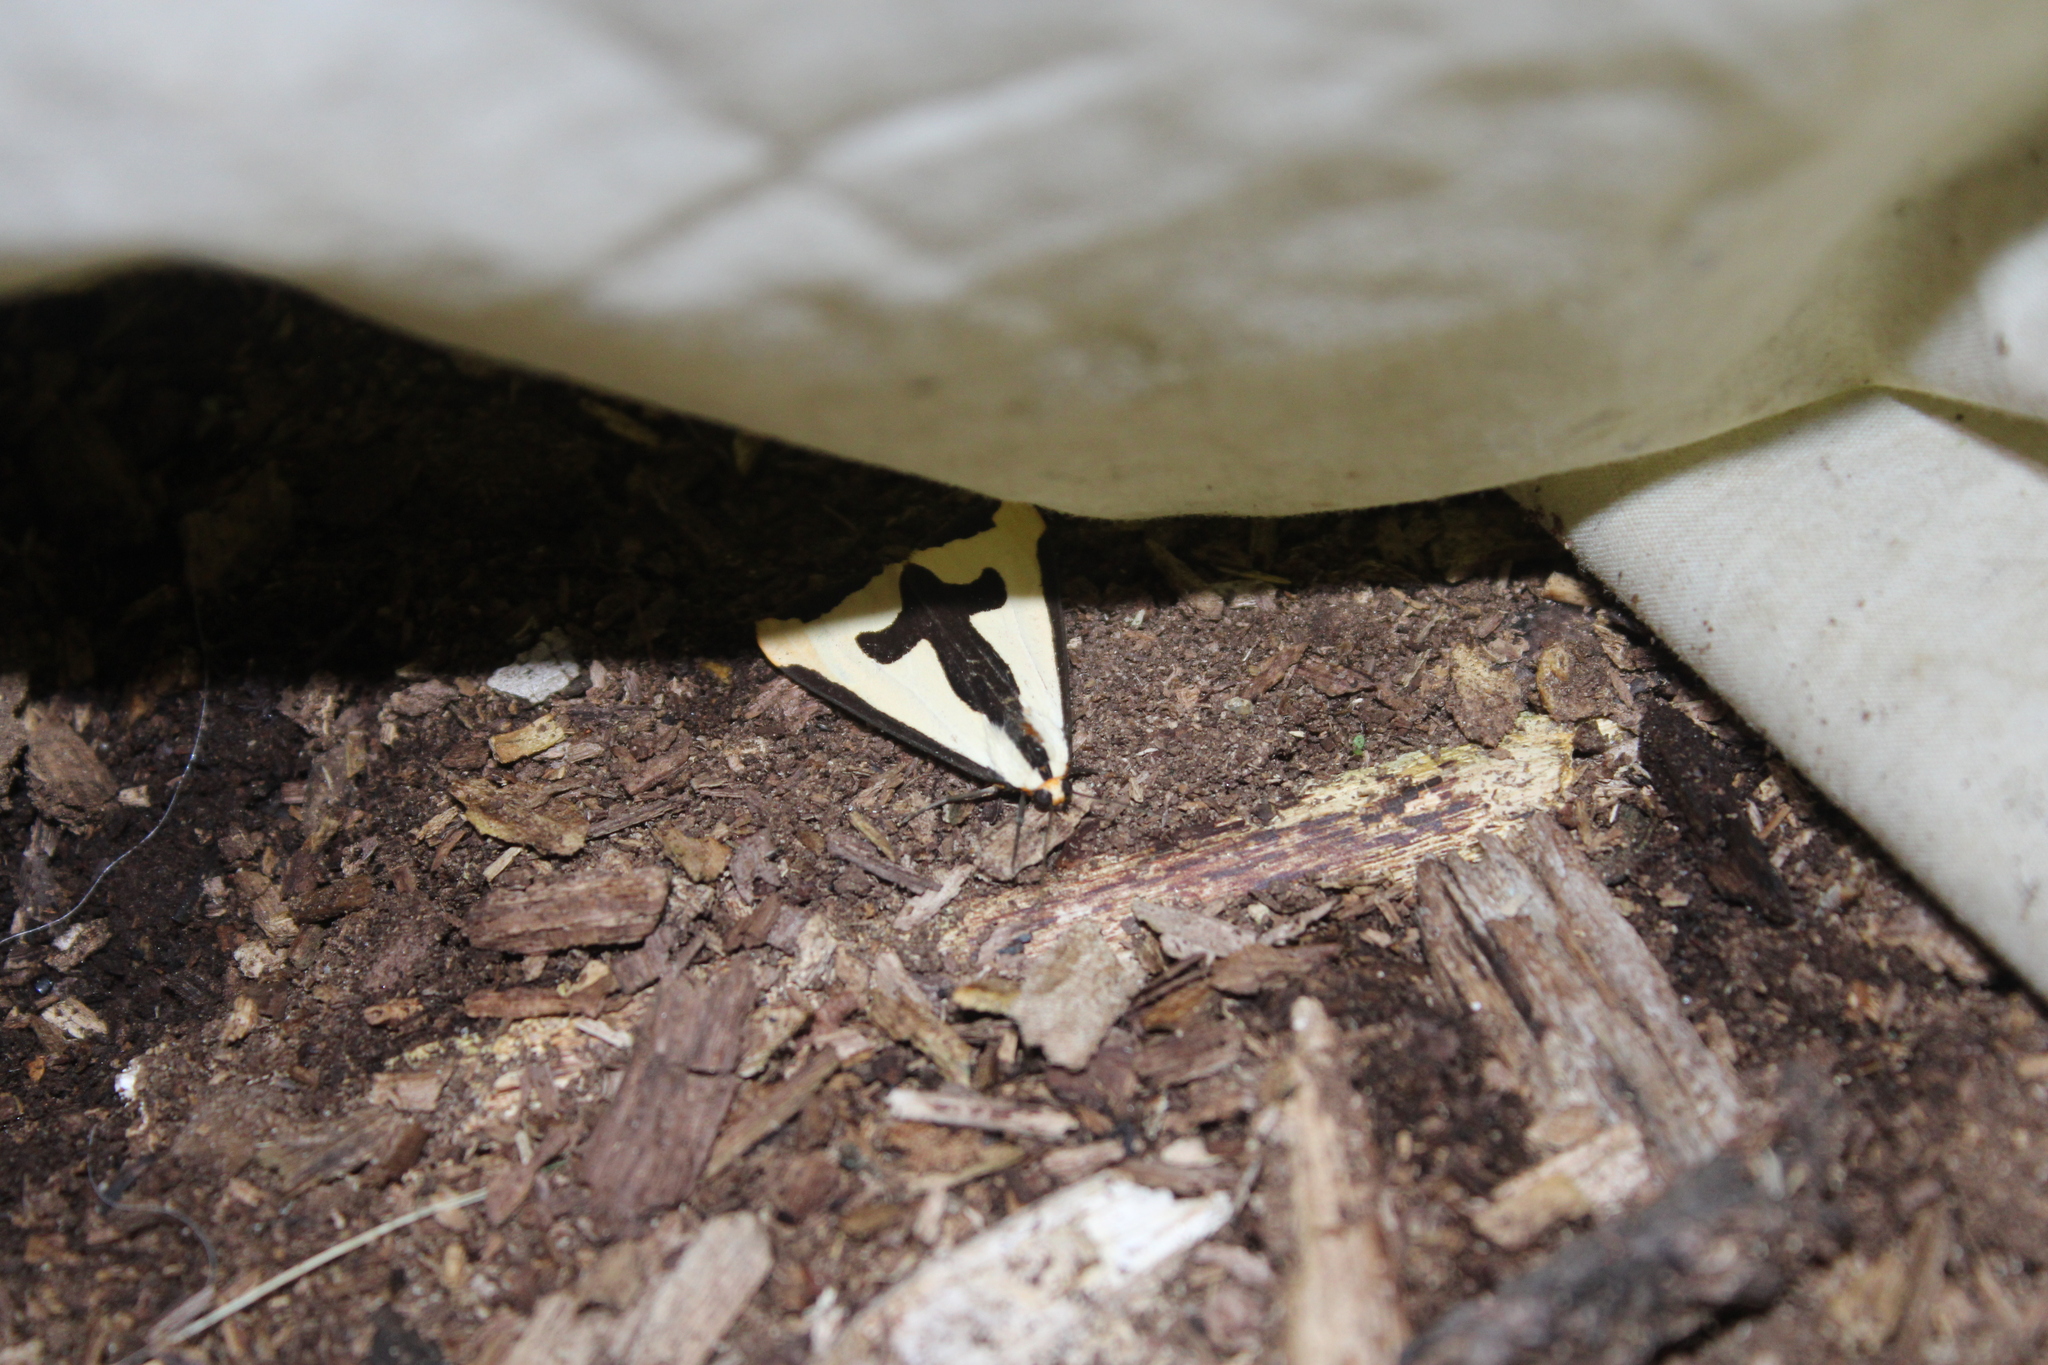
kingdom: Animalia
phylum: Arthropoda
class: Insecta
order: Lepidoptera
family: Erebidae
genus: Haploa
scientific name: Haploa clymene
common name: Clymene moth
